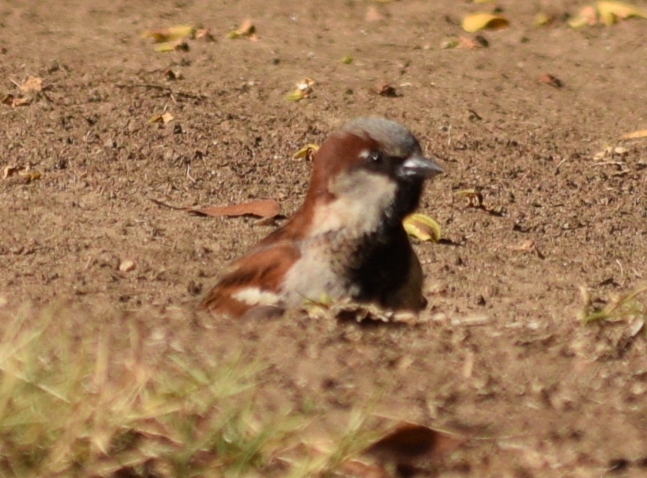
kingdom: Animalia
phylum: Chordata
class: Aves
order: Passeriformes
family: Passeridae
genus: Passer
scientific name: Passer domesticus
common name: House sparrow
